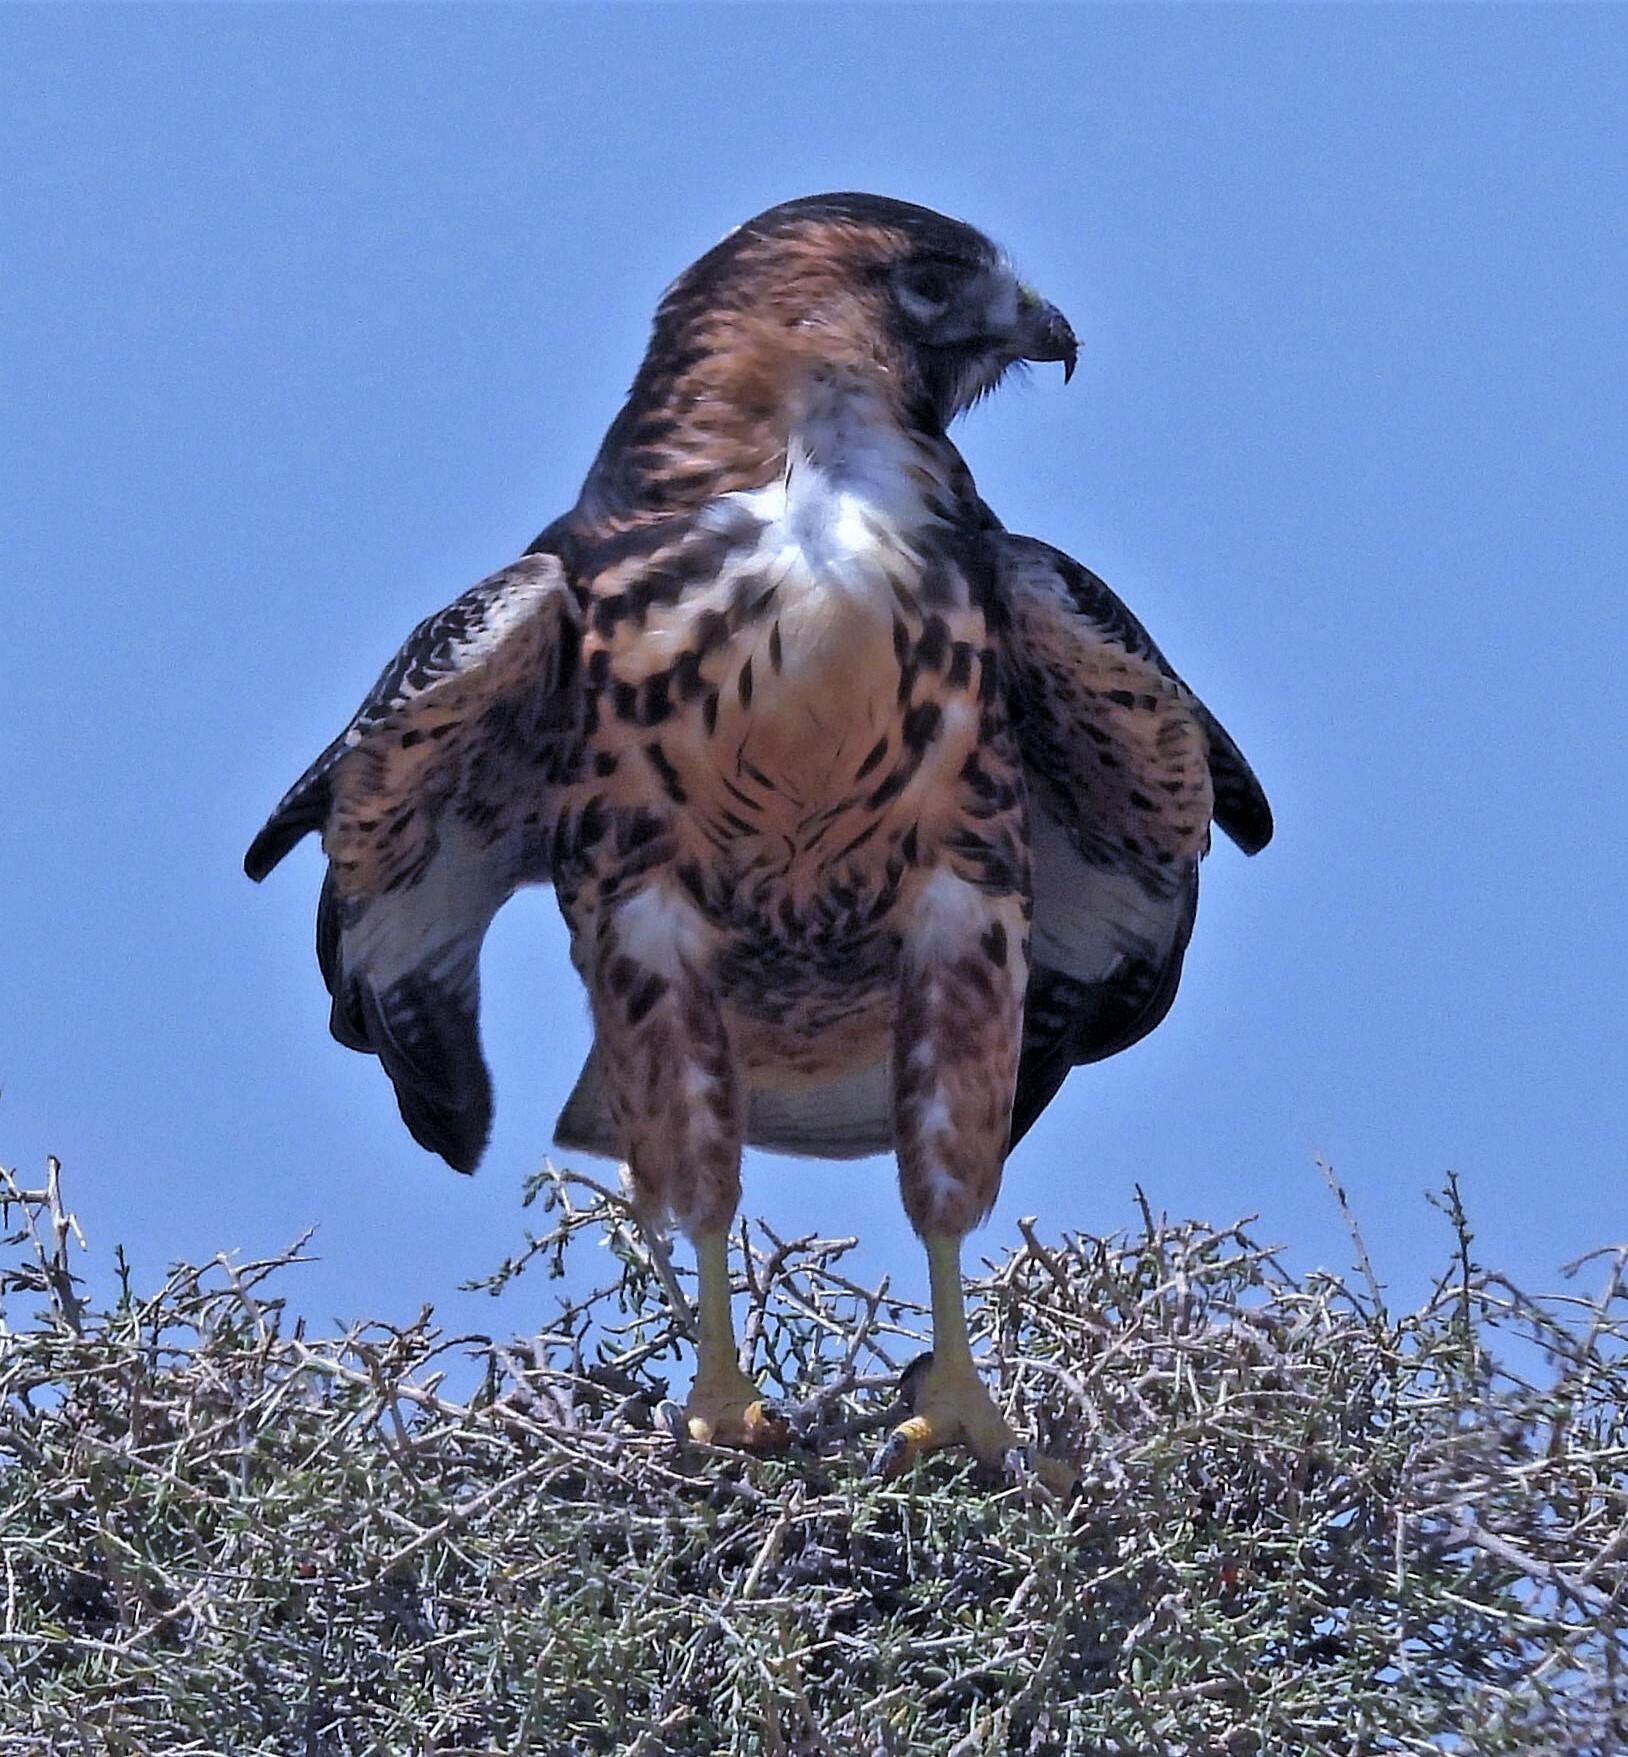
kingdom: Animalia
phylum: Chordata
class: Aves
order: Accipitriformes
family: Accipitridae
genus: Buteo
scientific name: Buteo polyosoma
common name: Variable hawk
